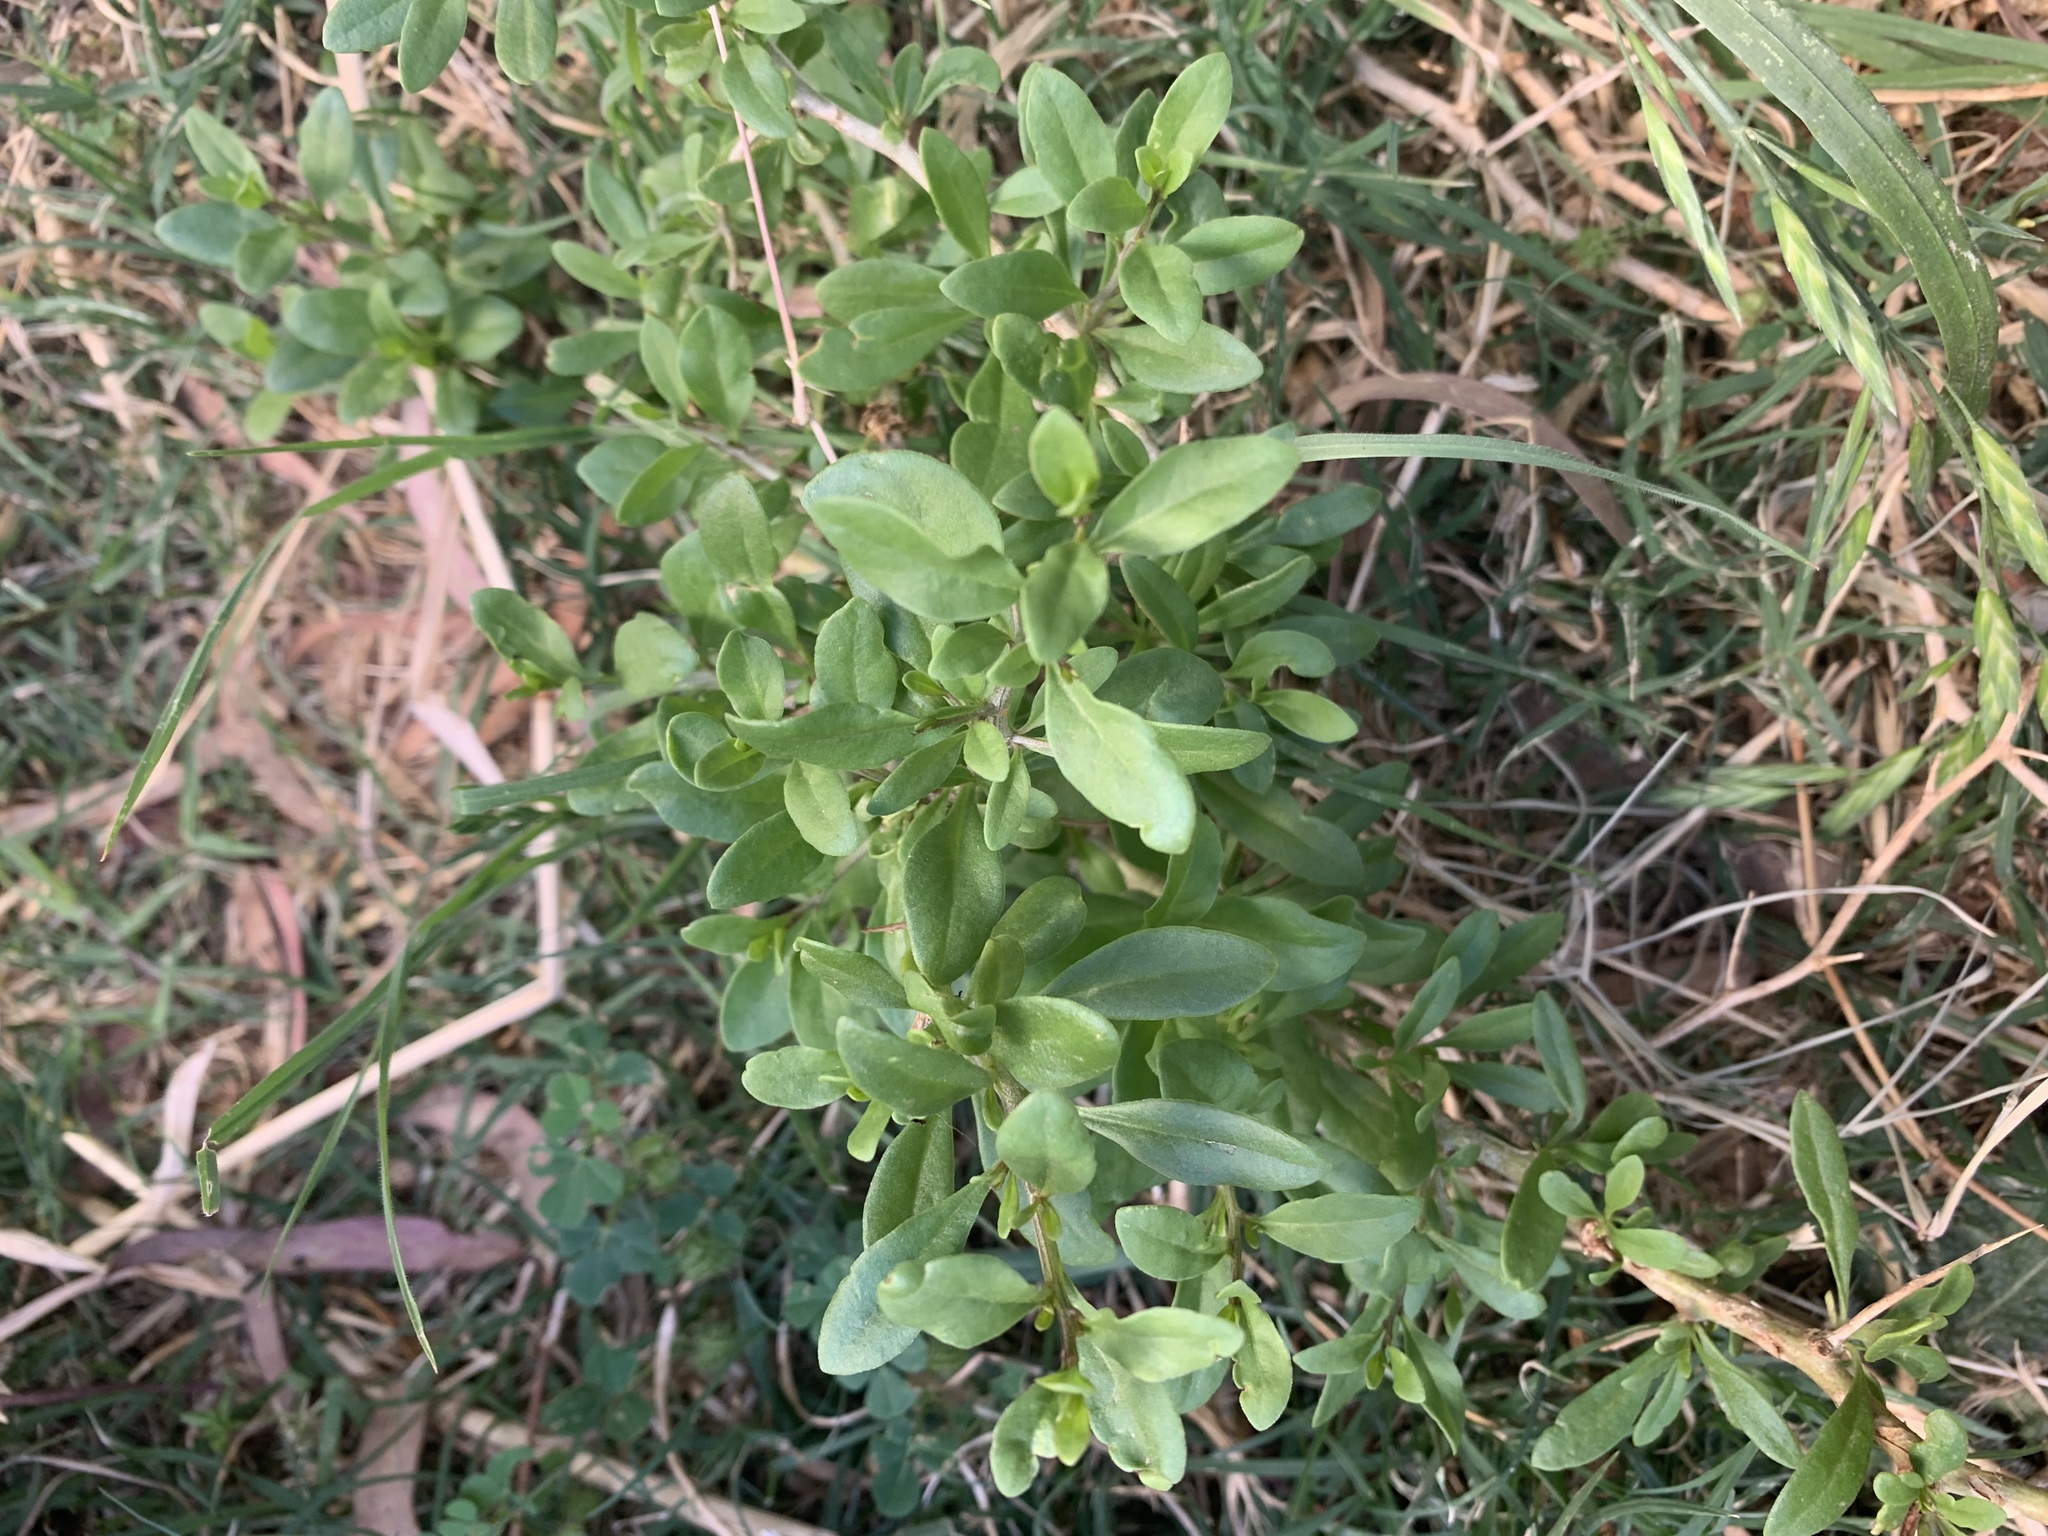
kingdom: Plantae
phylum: Tracheophyta
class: Magnoliopsida
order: Solanales
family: Solanaceae
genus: Lycium
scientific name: Lycium ferocissimum
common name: African boxthorn
